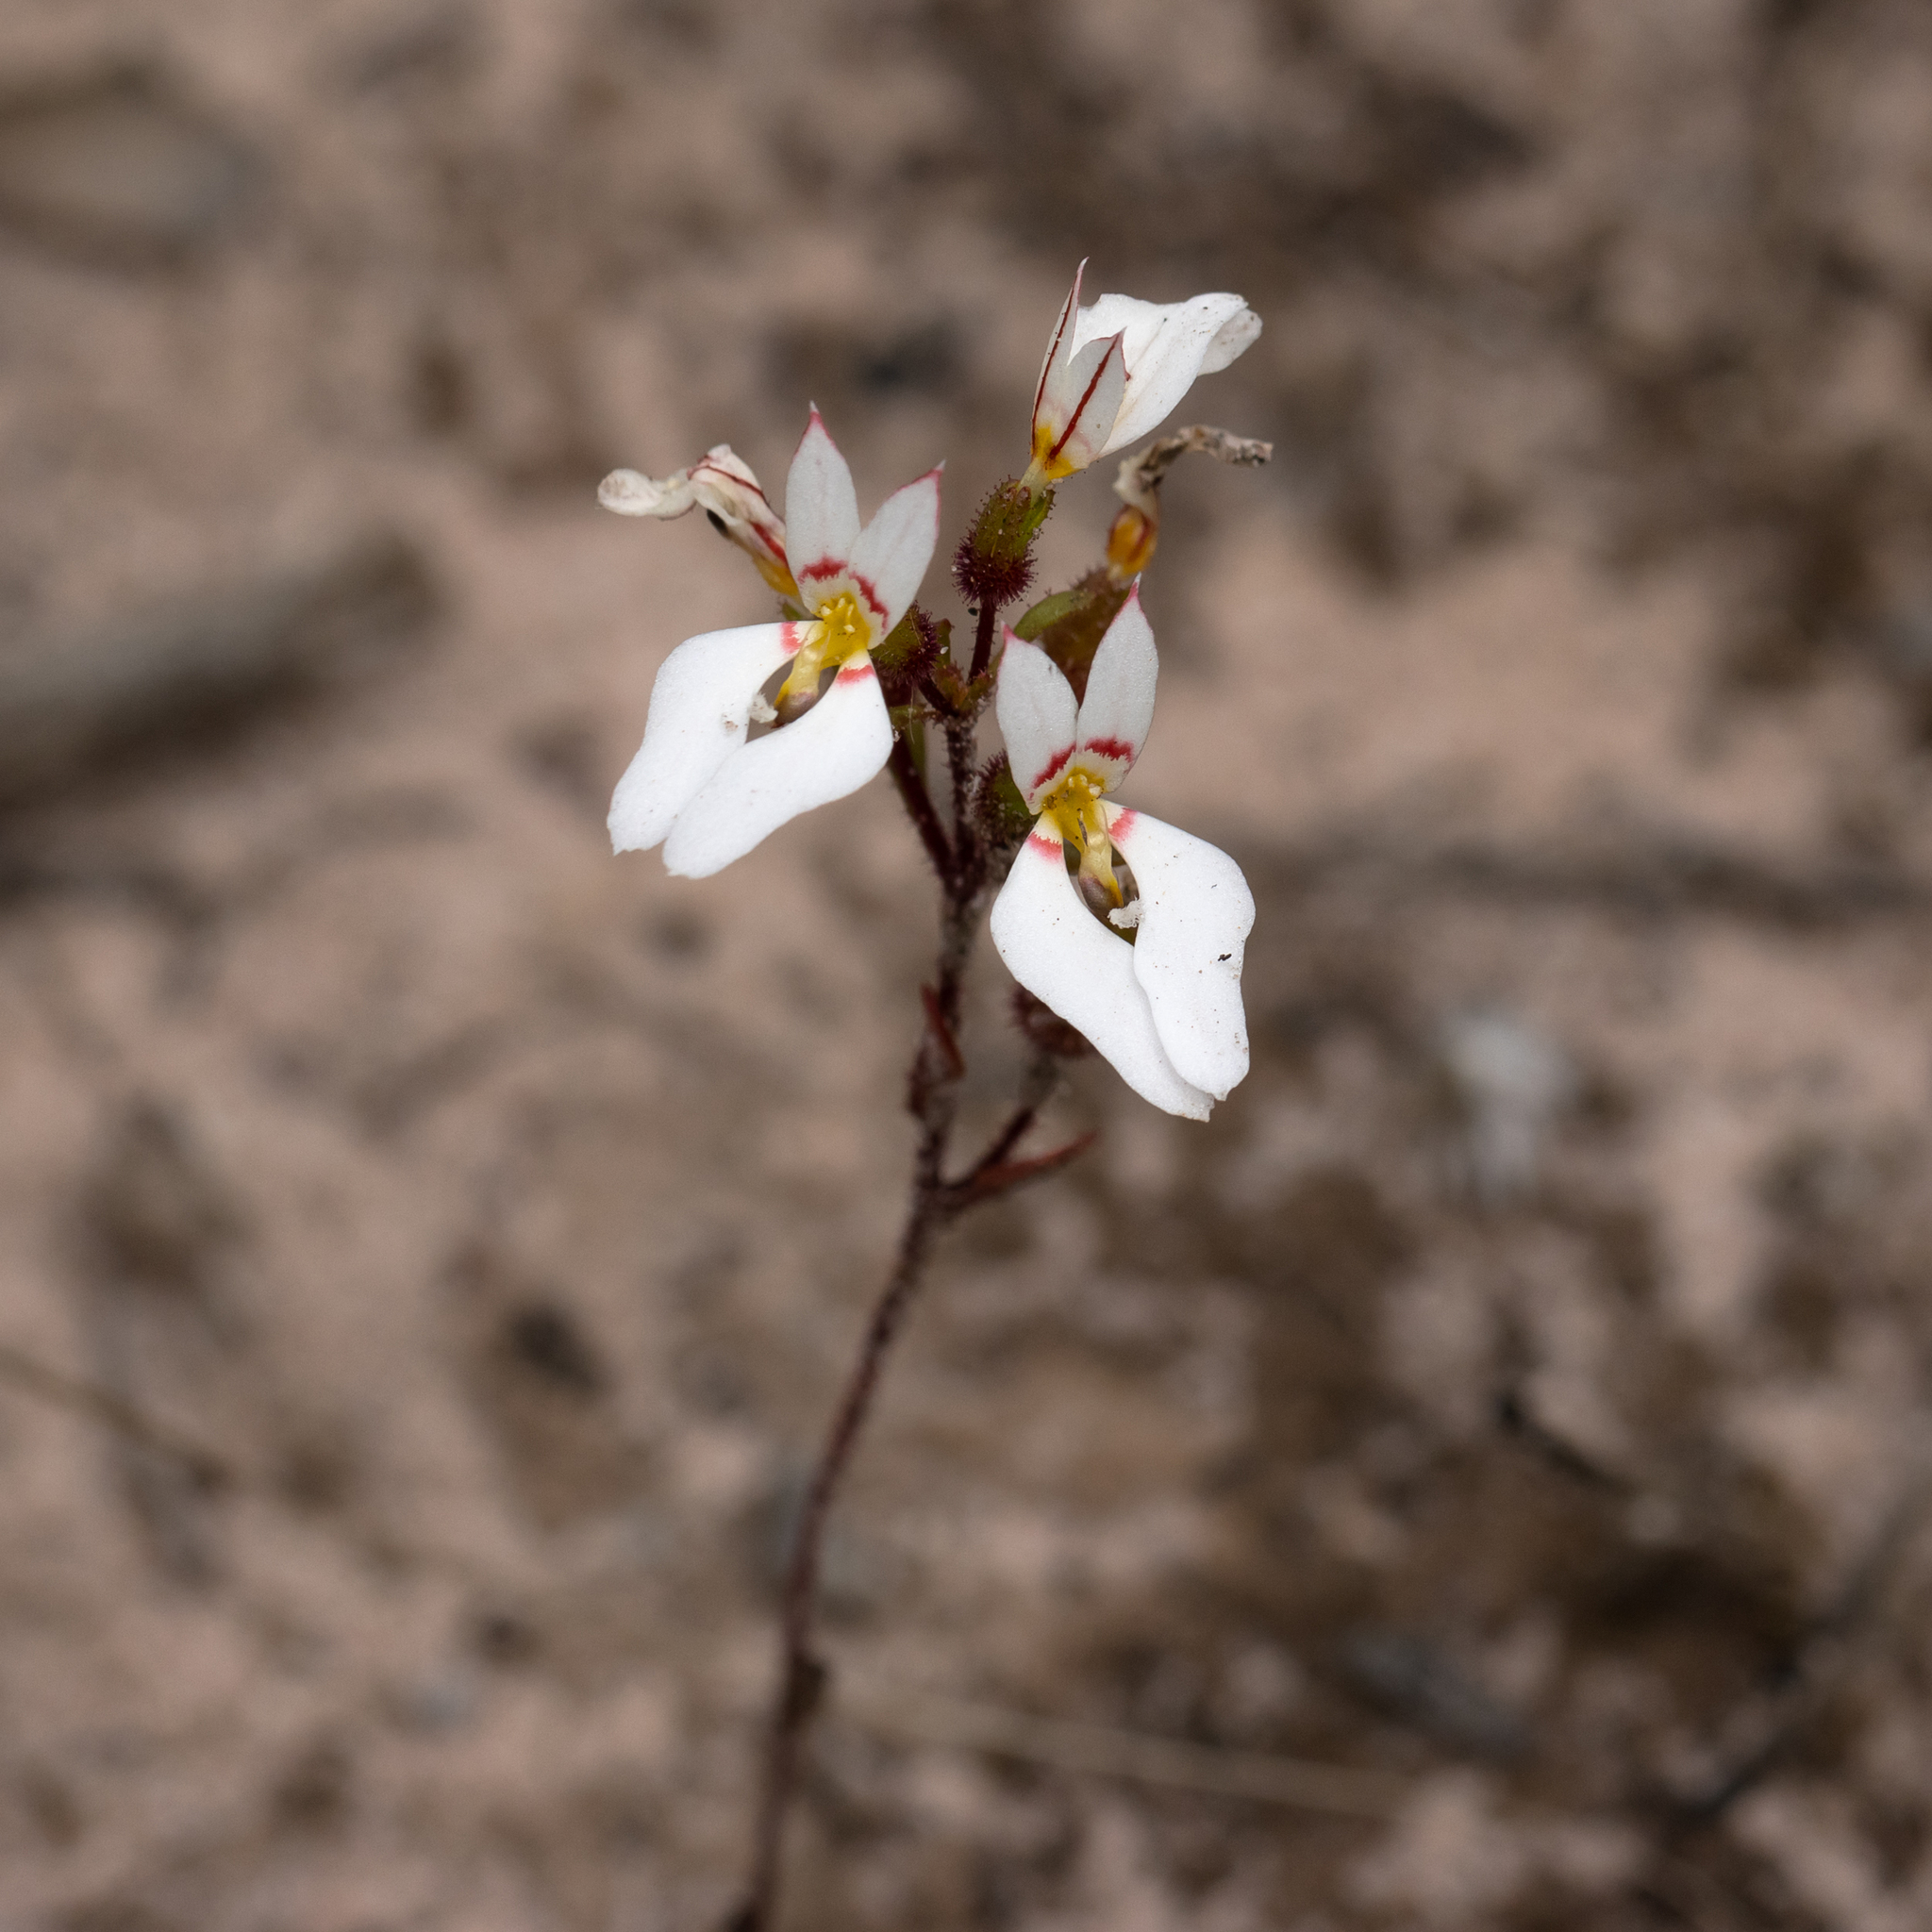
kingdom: Plantae
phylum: Tracheophyta
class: Magnoliopsida
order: Asterales
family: Stylidiaceae
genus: Levenhookia
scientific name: Levenhookia pauciflora
